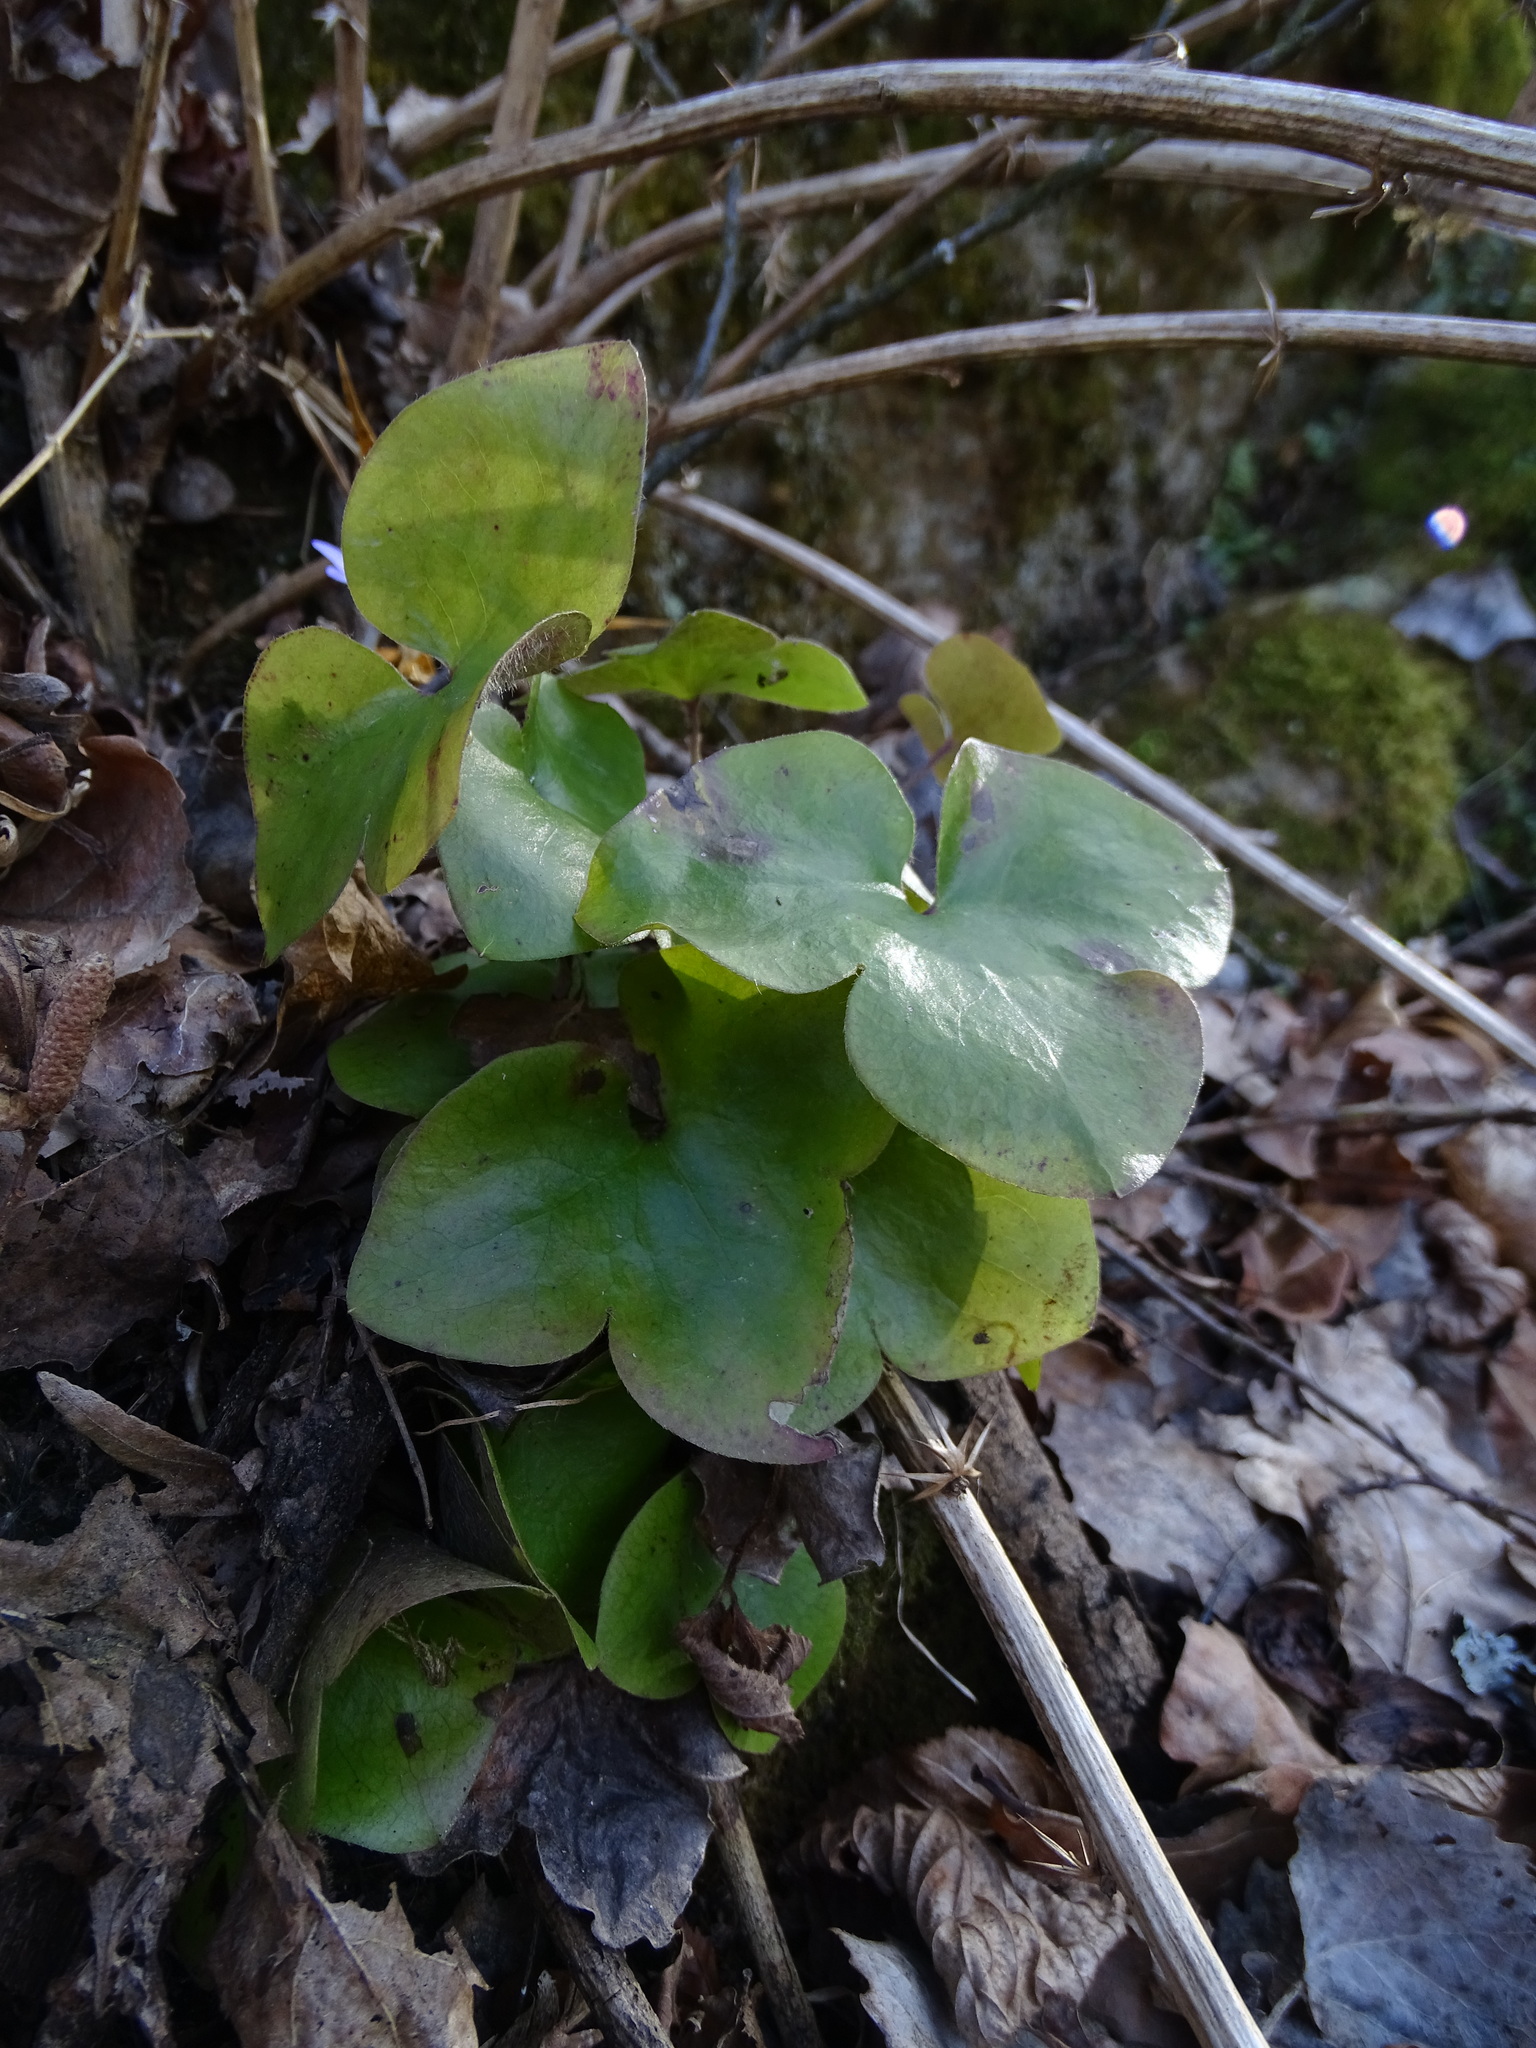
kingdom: Plantae
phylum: Tracheophyta
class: Magnoliopsida
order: Ranunculales
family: Ranunculaceae
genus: Hepatica
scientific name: Hepatica nobilis
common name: Liverleaf
